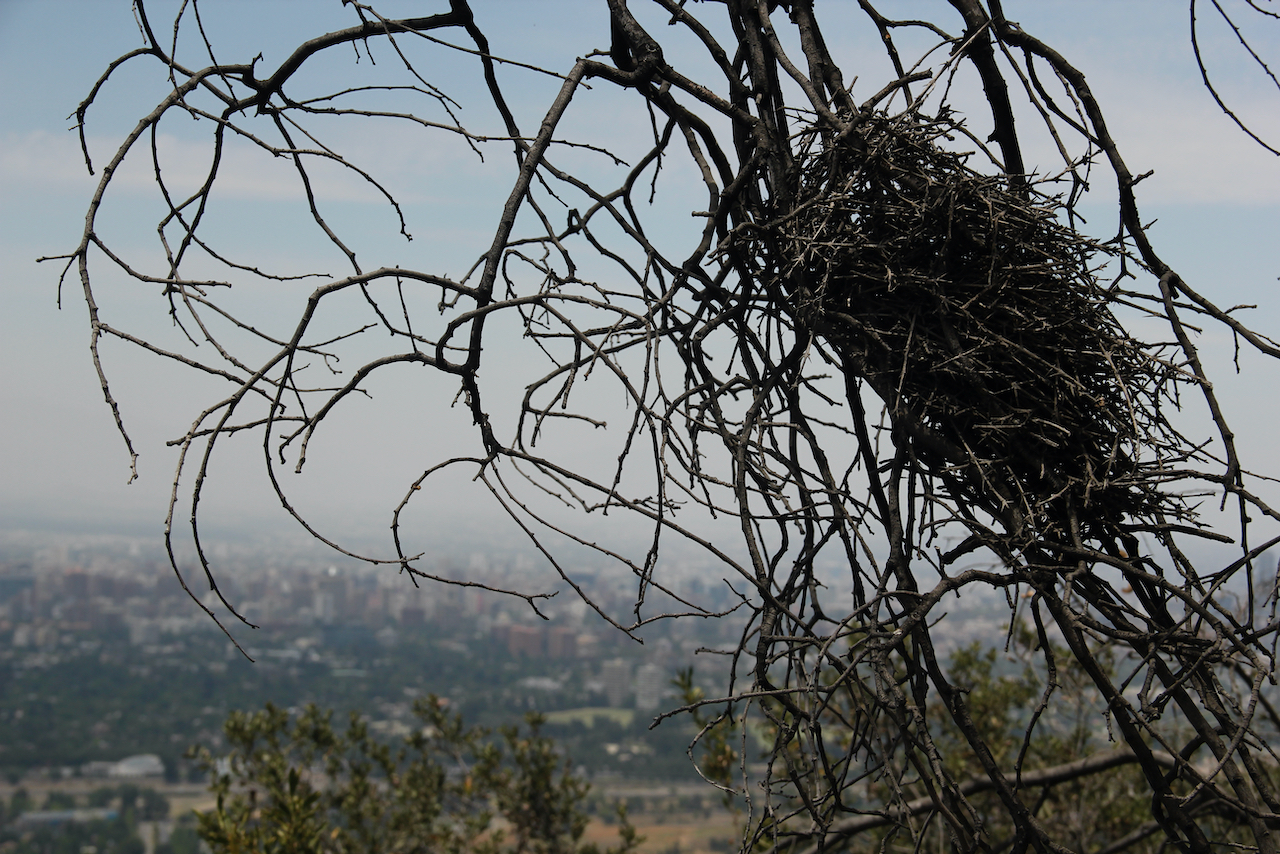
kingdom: Animalia
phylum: Chordata
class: Aves
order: Passeriformes
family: Furnariidae
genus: Asthenes
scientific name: Asthenes humicola
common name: Dusky-tailed canastero
